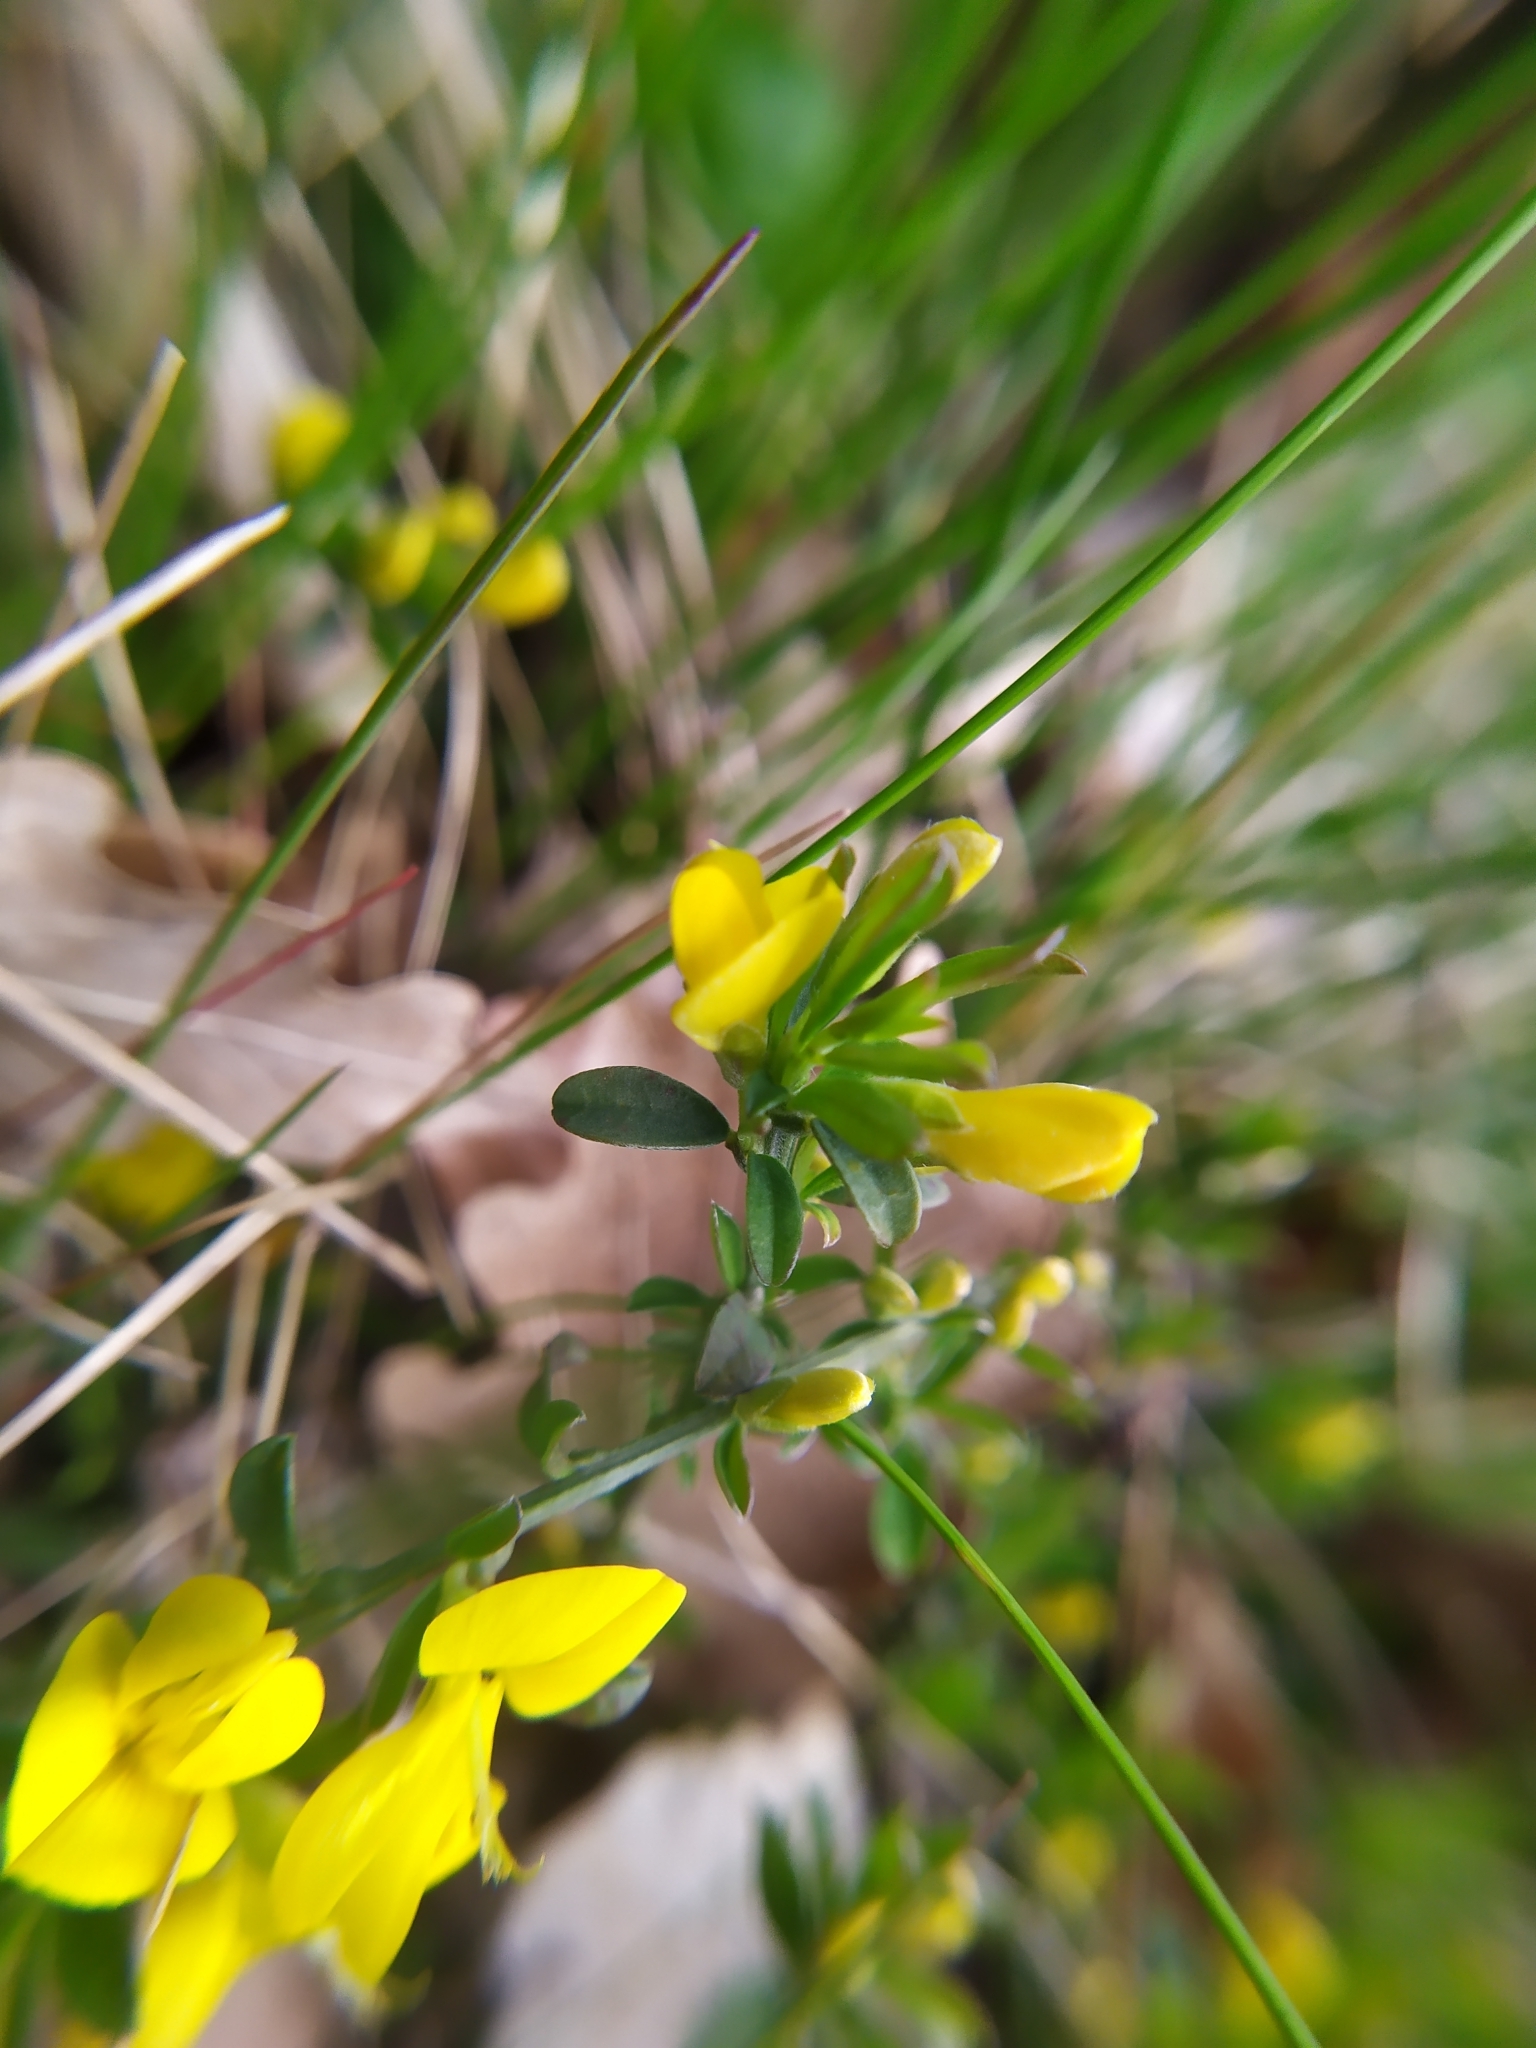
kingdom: Plantae
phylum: Tracheophyta
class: Magnoliopsida
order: Fabales
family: Fabaceae
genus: Genista
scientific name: Genista pilosa
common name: Hairy greenweed
